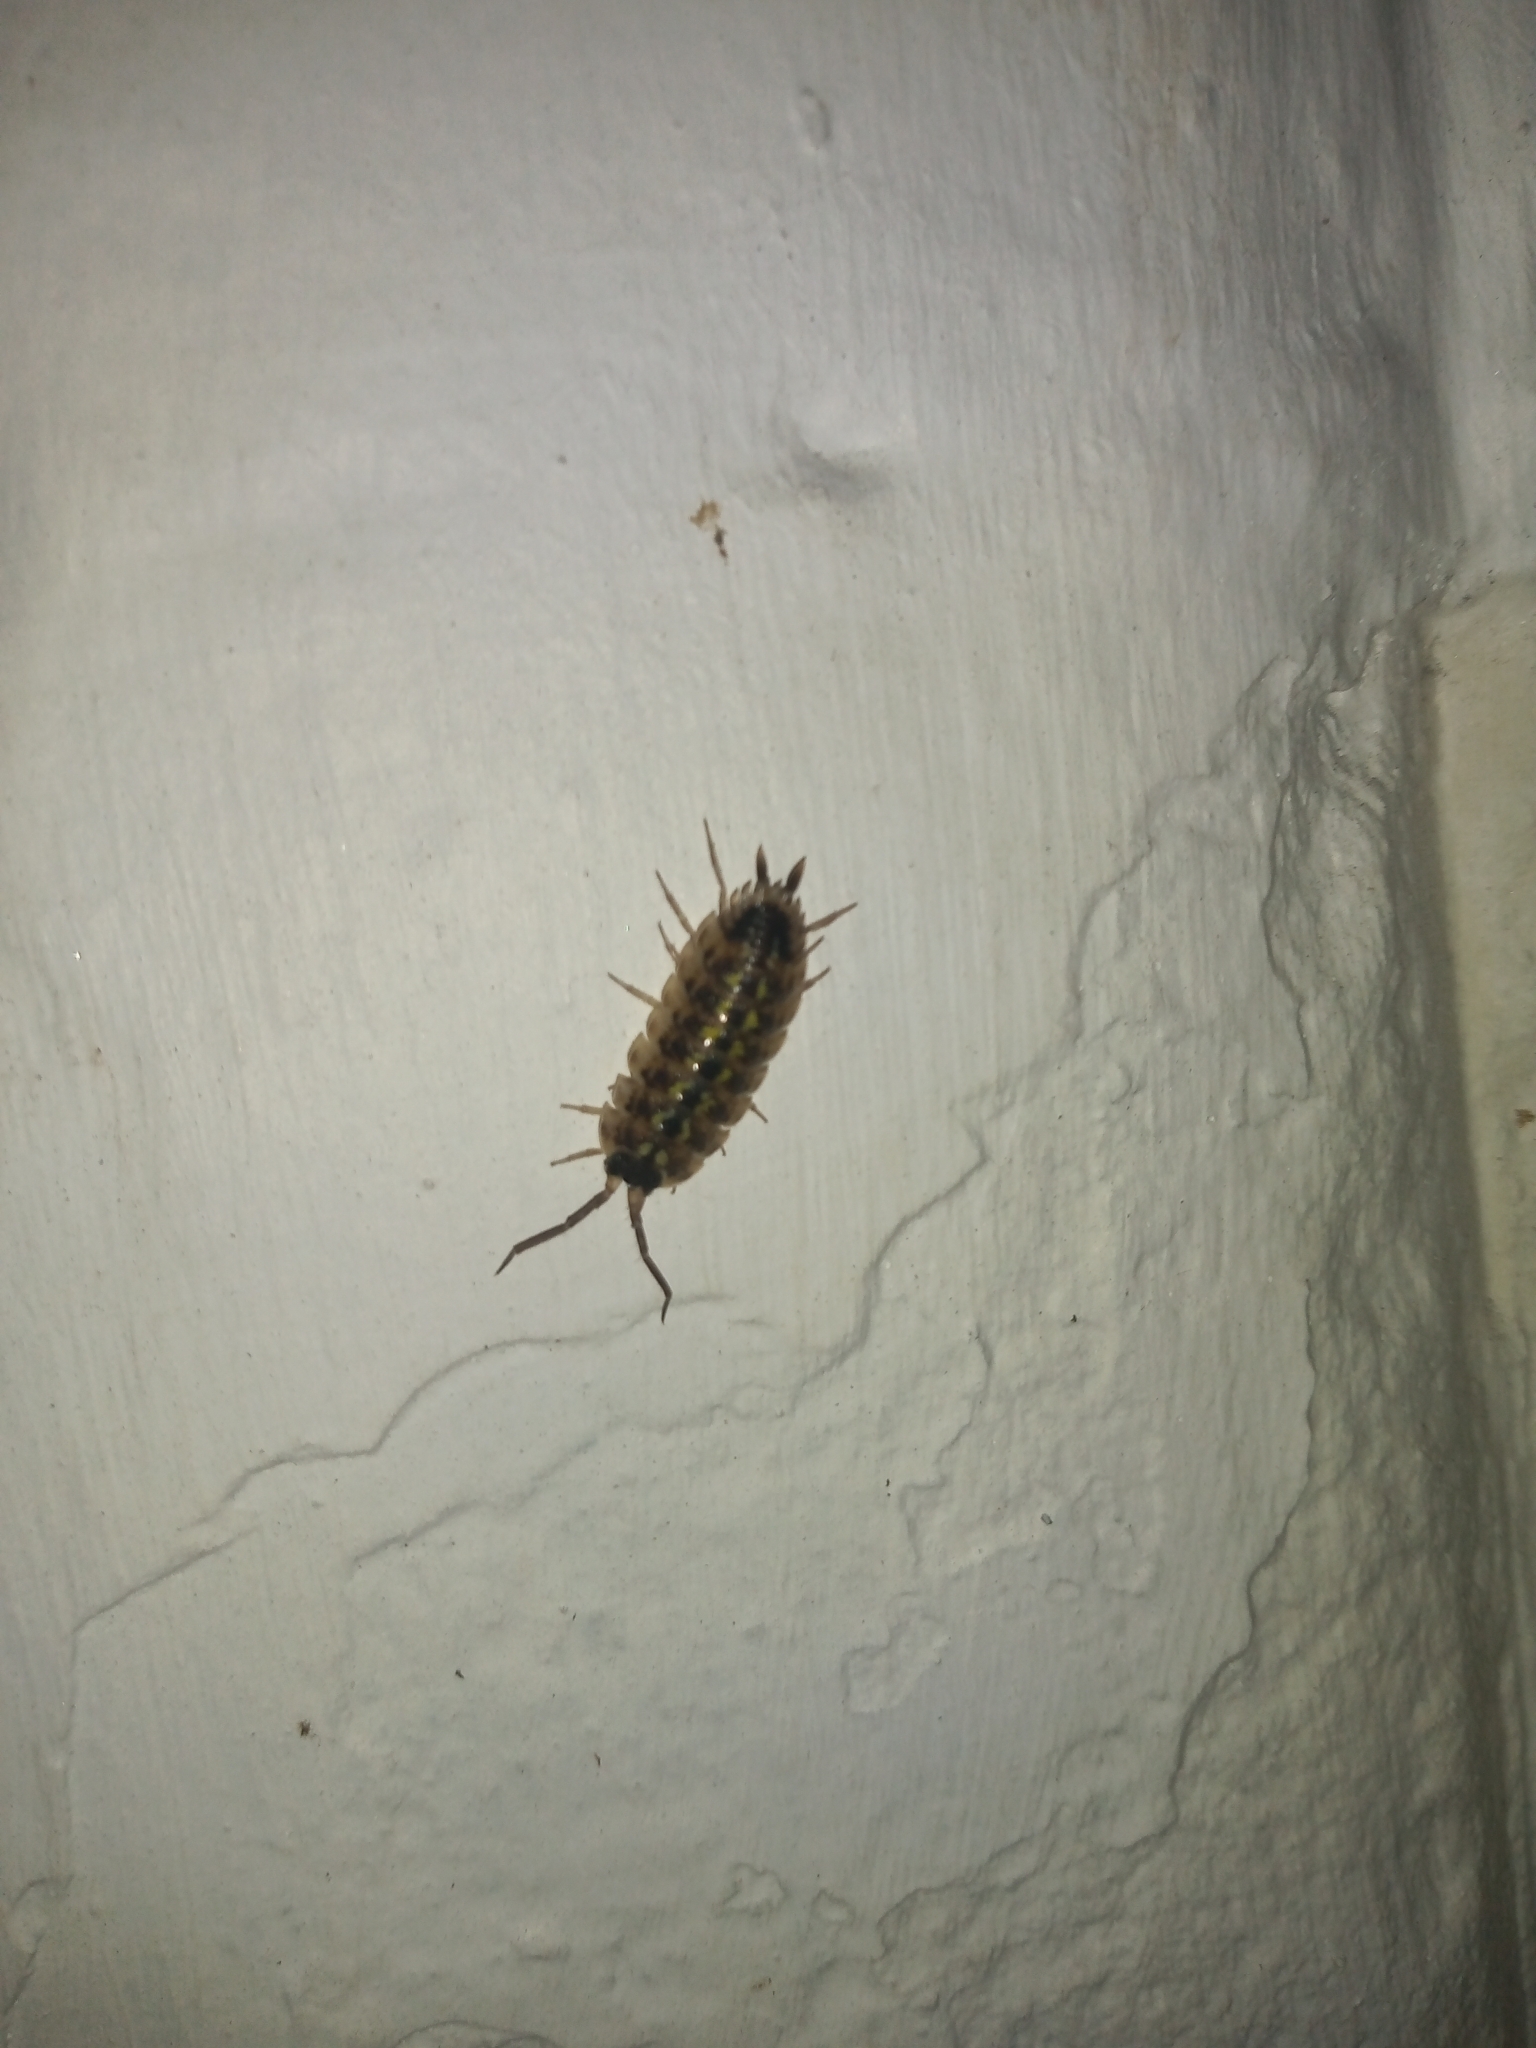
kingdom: Animalia
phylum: Arthropoda
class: Malacostraca
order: Isopoda
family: Porcellionidae
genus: Porcellio
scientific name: Porcellio spinicornis
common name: Painted woodlouse
